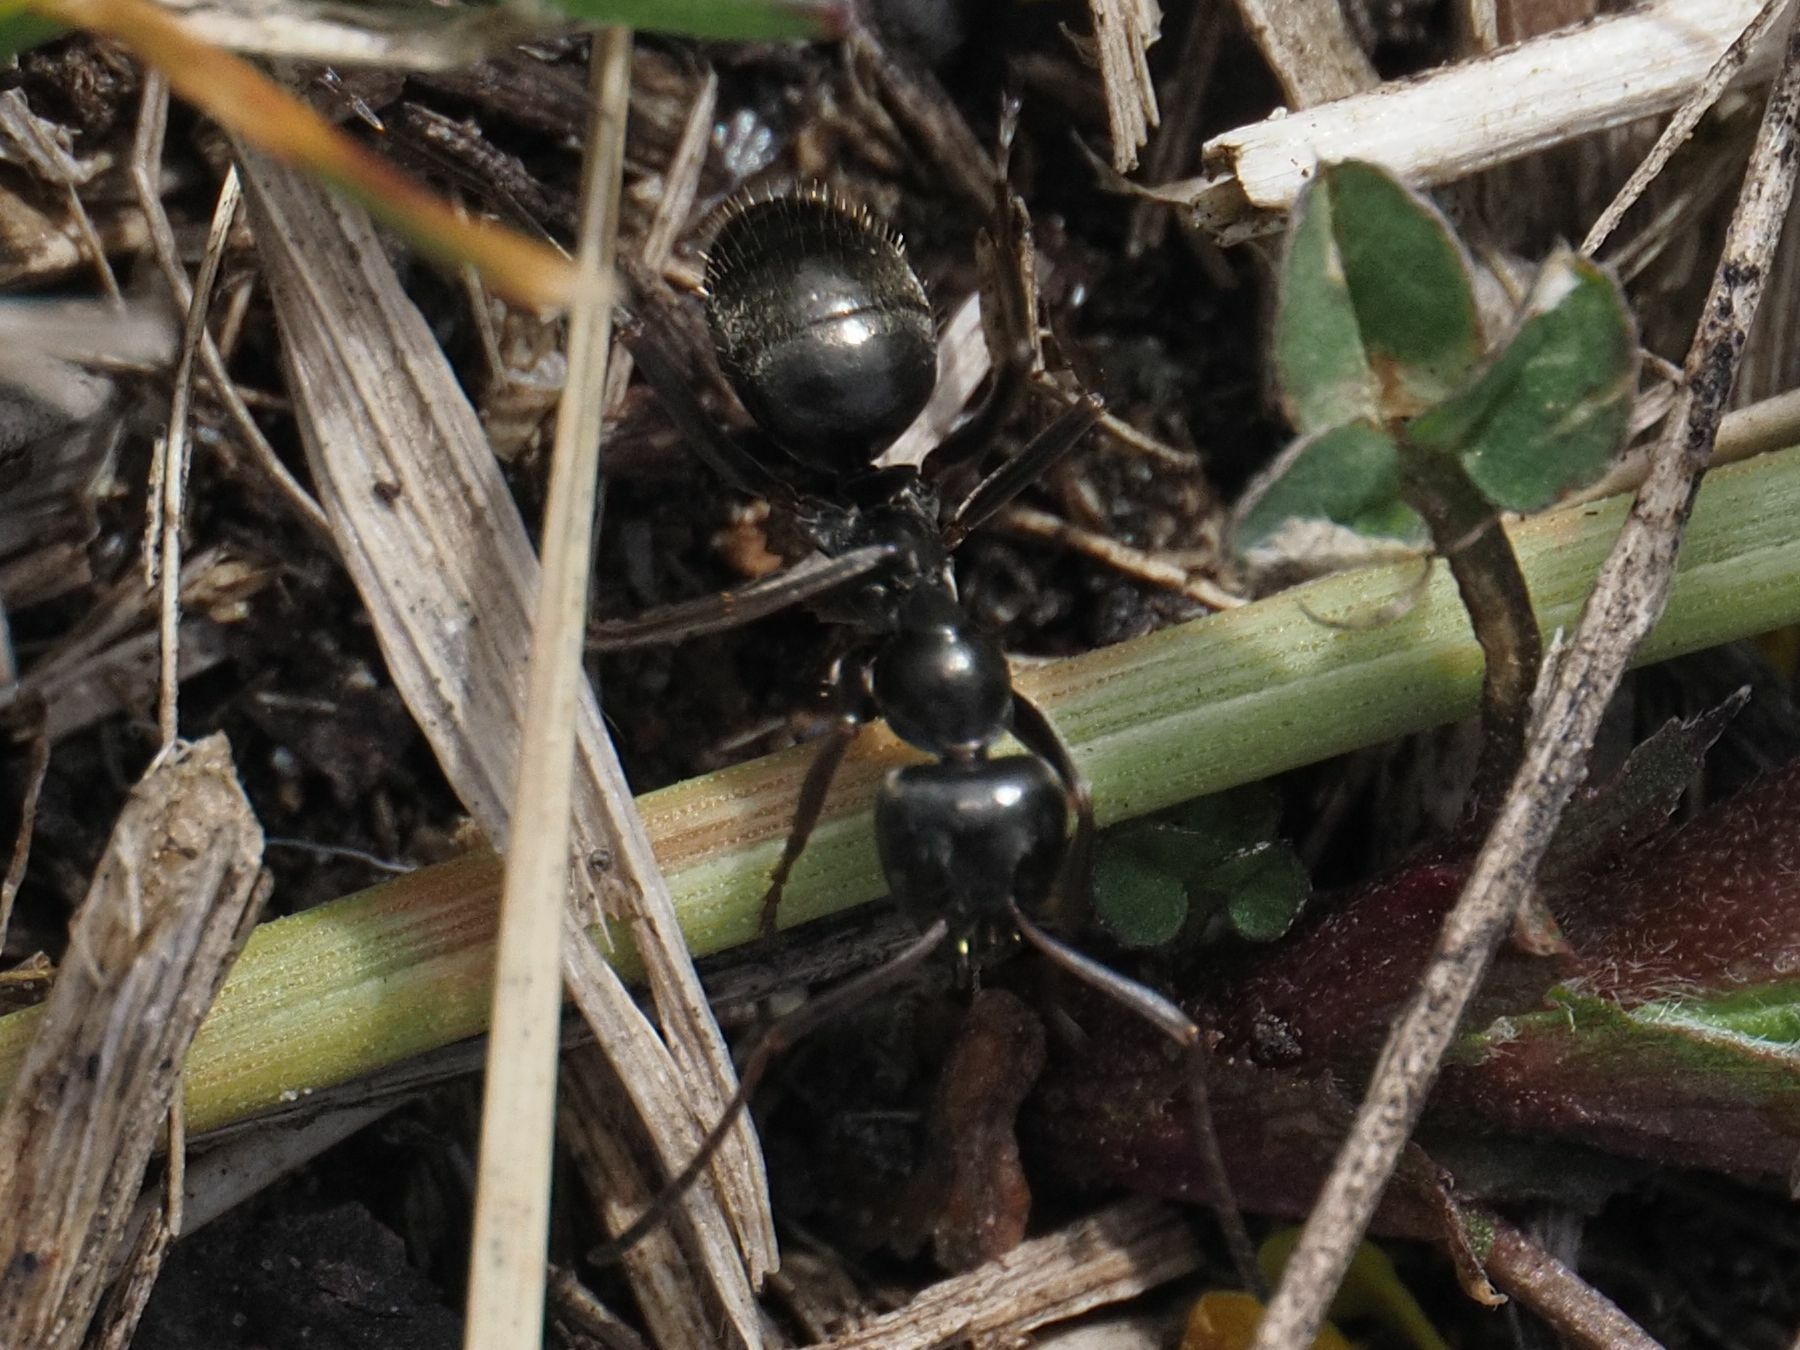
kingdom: Animalia
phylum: Arthropoda
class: Insecta
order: Hymenoptera
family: Formicidae
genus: Formica
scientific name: Formica gagates
